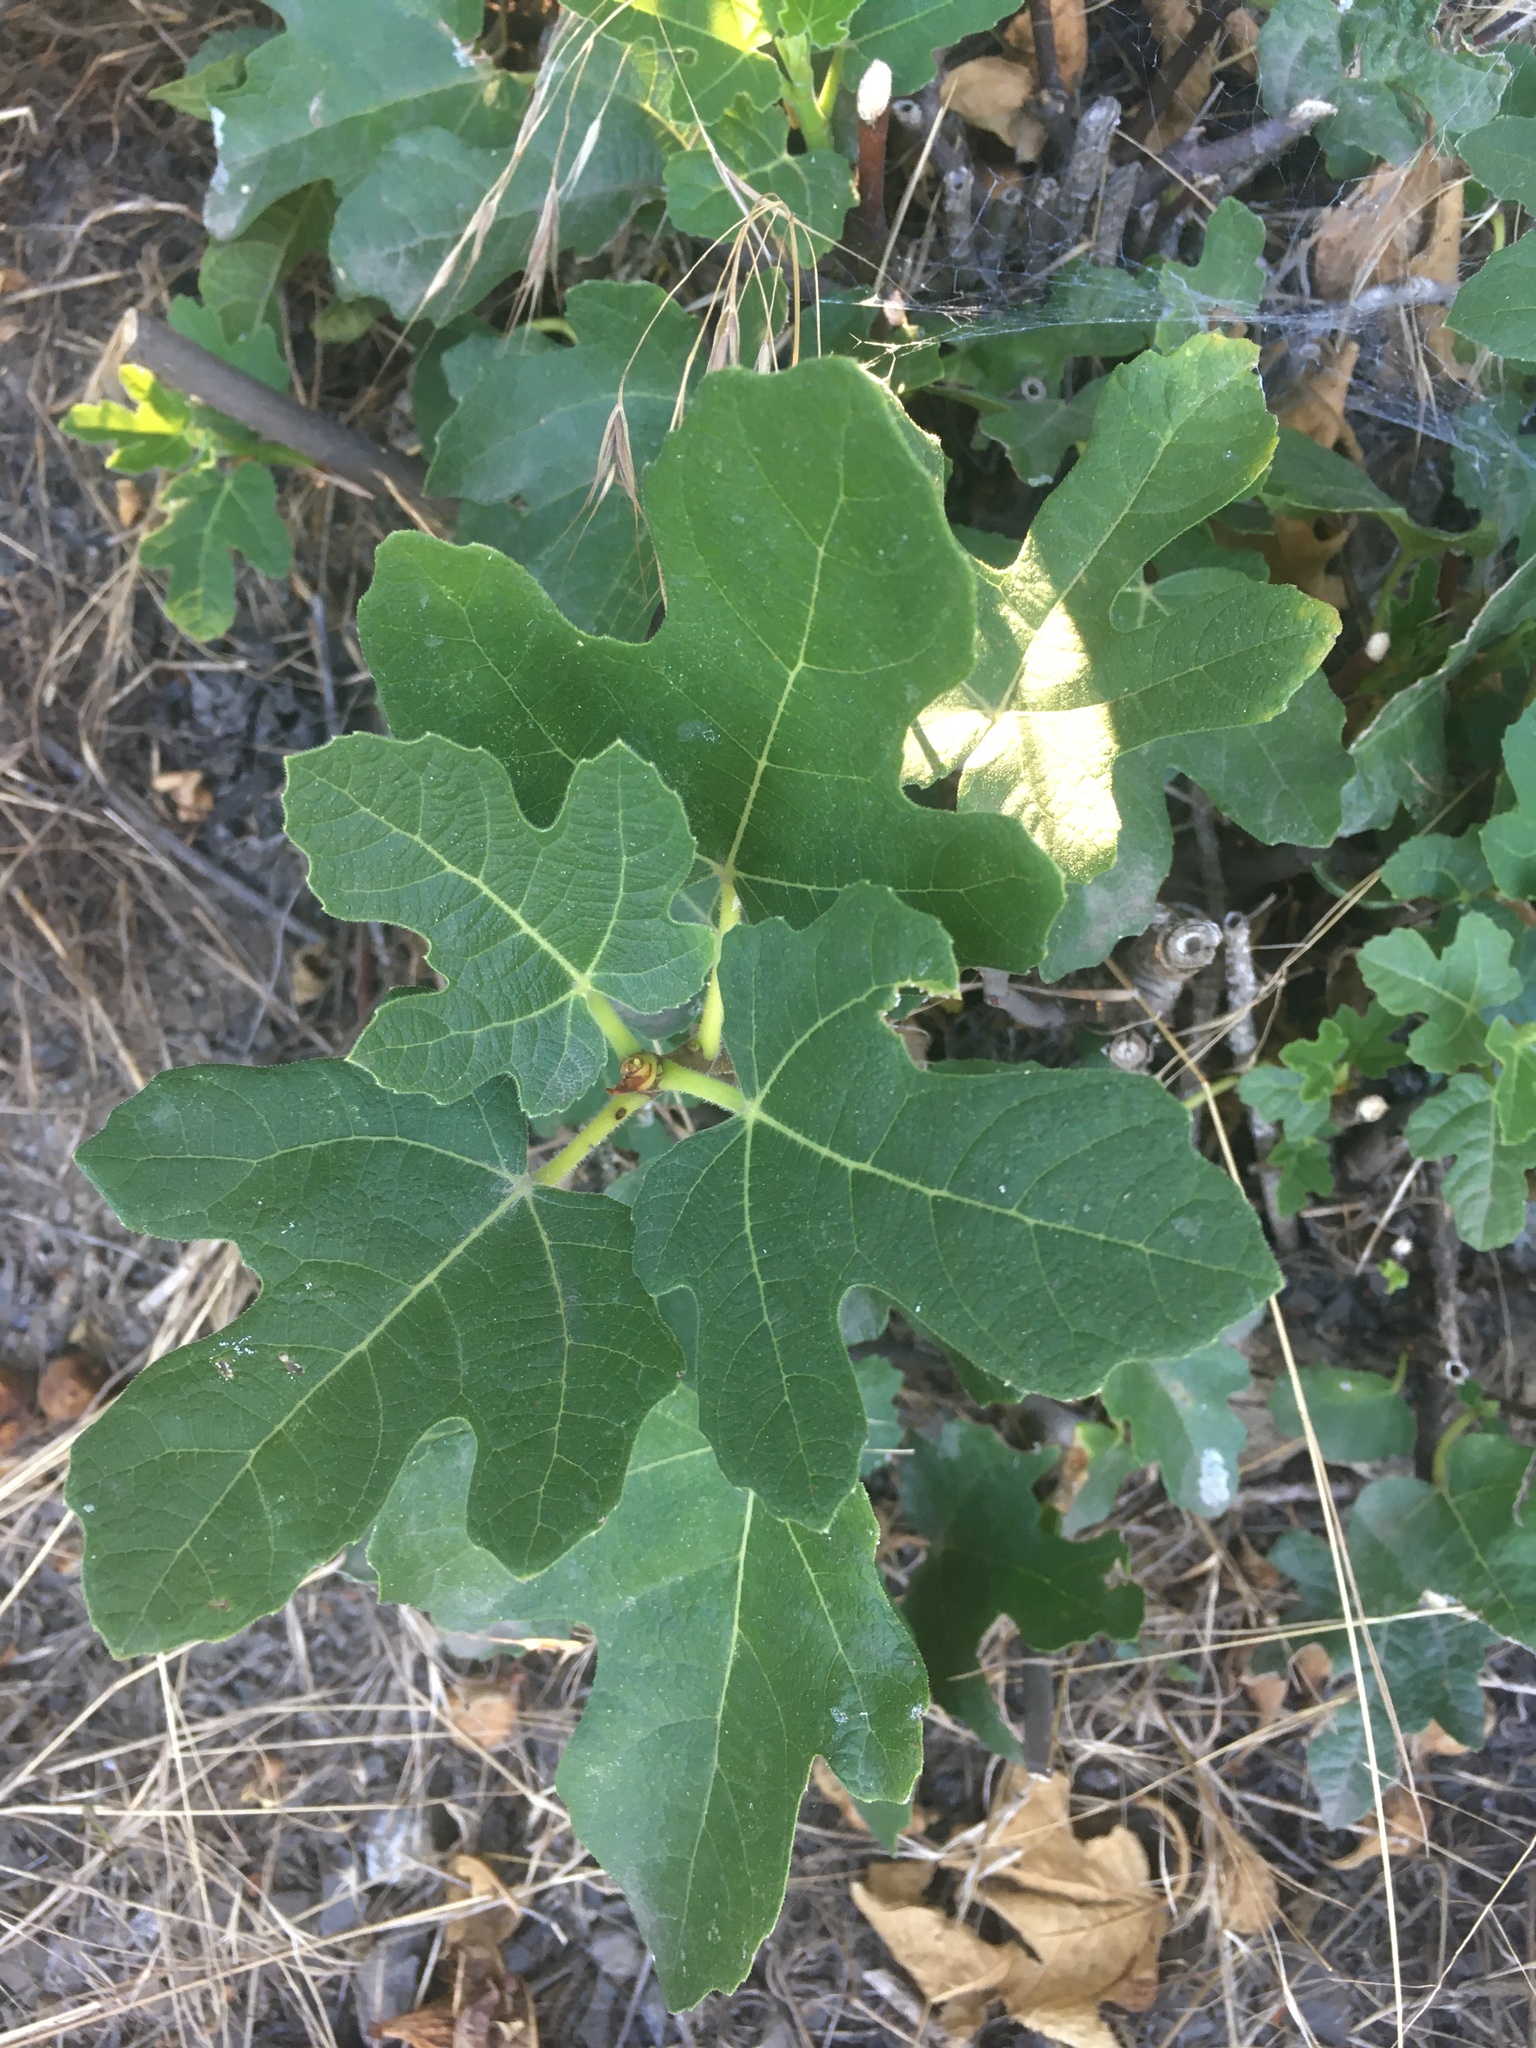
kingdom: Plantae
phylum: Tracheophyta
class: Magnoliopsida
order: Rosales
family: Moraceae
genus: Ficus
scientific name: Ficus carica
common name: Fig
